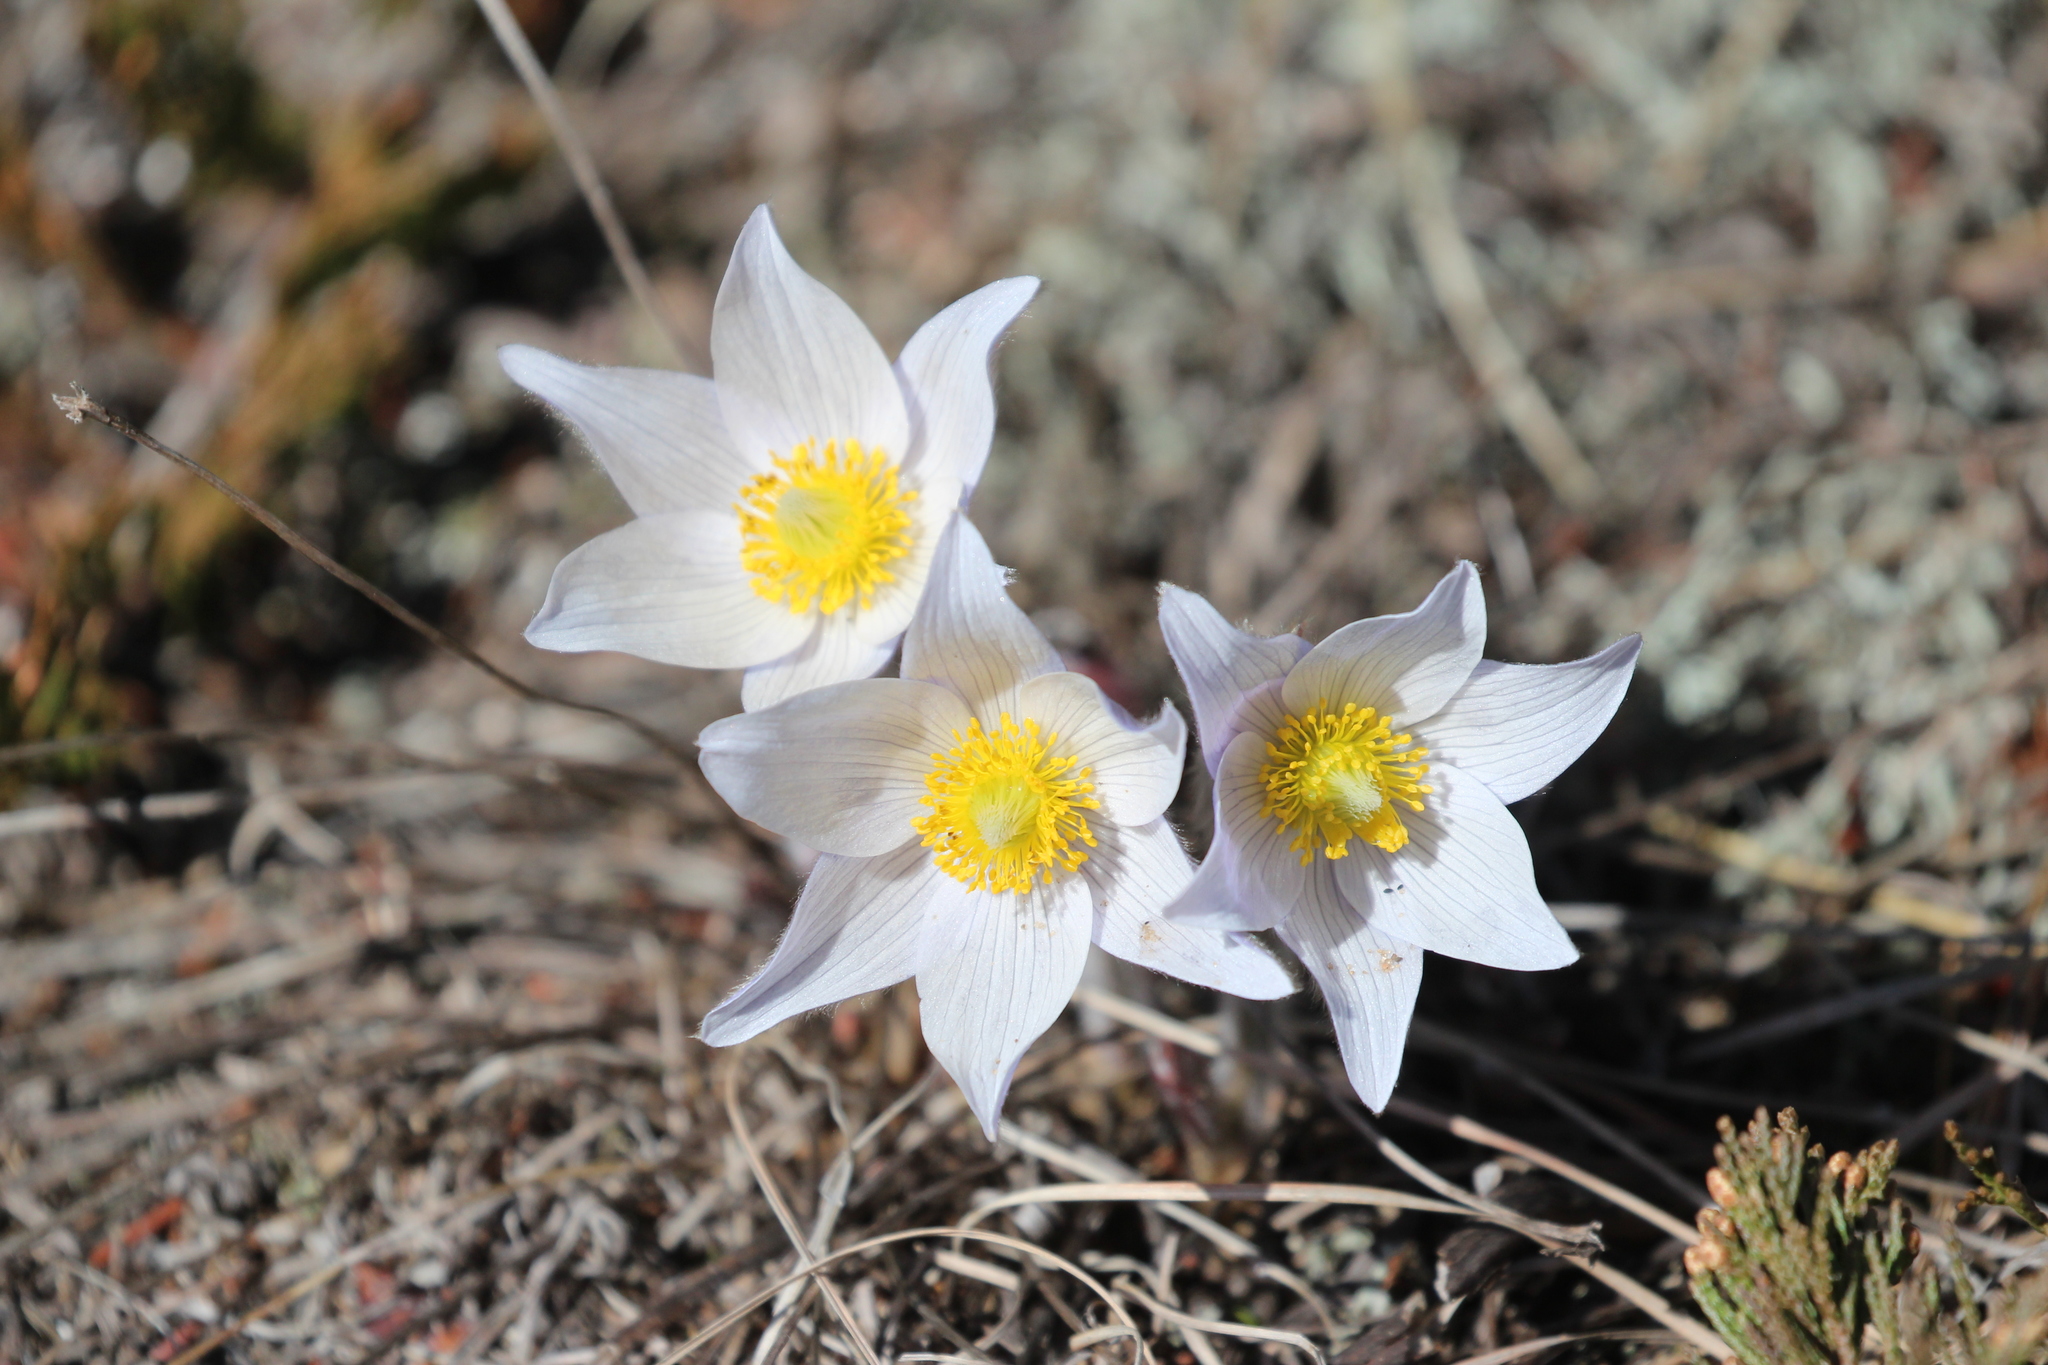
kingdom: Plantae
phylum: Tracheophyta
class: Magnoliopsida
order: Ranunculales
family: Ranunculaceae
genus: Pulsatilla
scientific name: Pulsatilla nuttalliana
